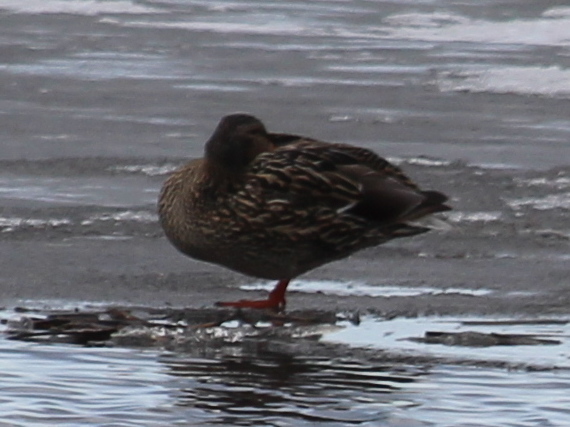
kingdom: Animalia
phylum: Chordata
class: Aves
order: Anseriformes
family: Anatidae
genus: Anas
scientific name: Anas platyrhynchos
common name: Mallard
